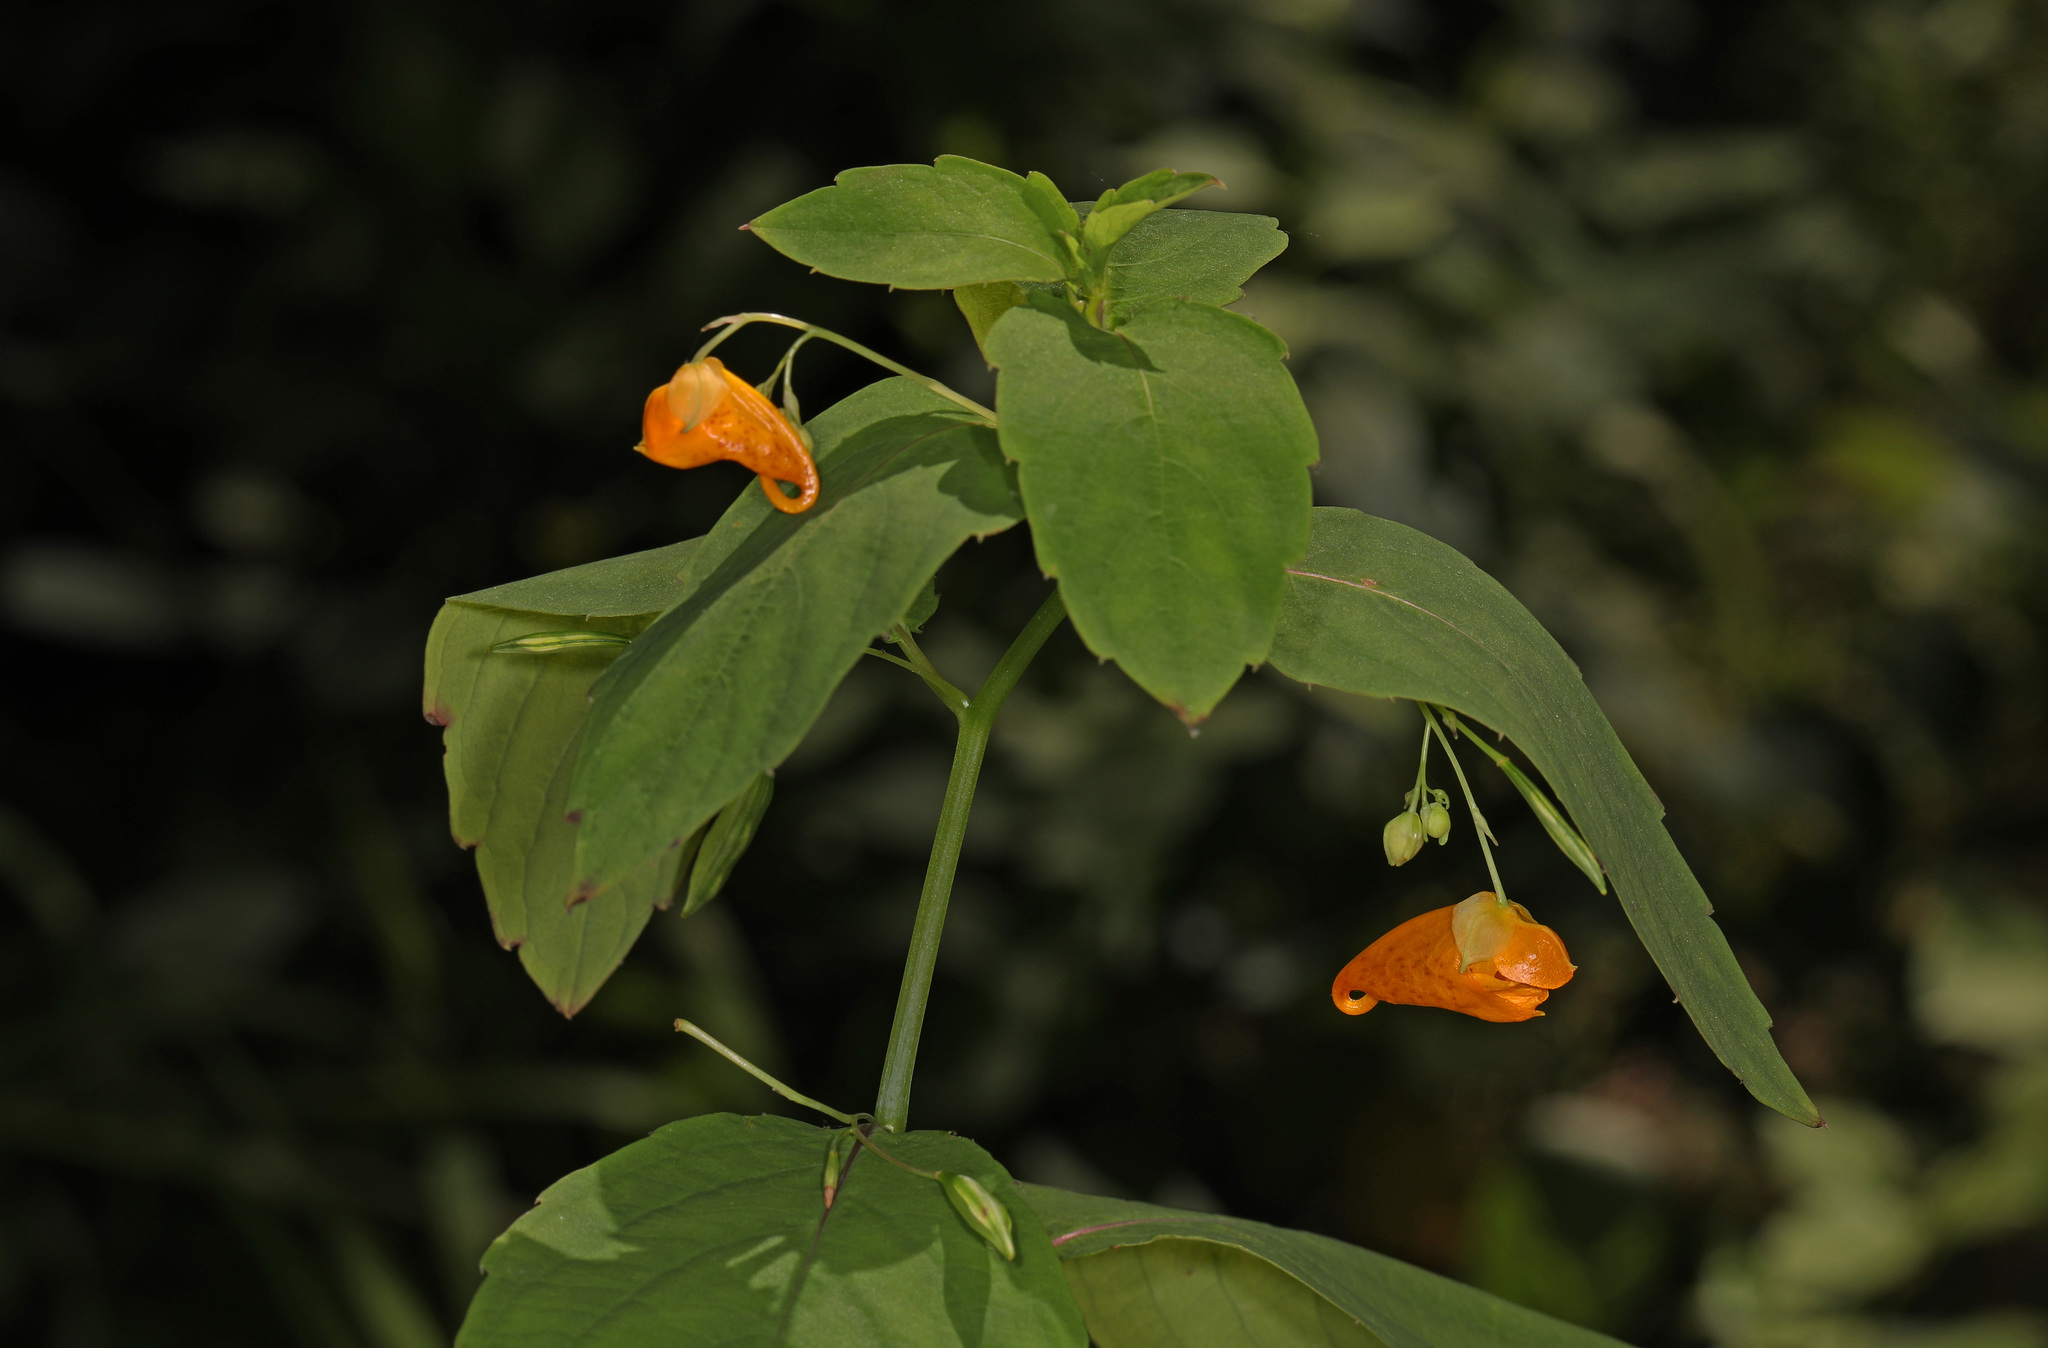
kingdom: Plantae
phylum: Tracheophyta
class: Magnoliopsida
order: Ericales
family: Balsaminaceae
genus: Impatiens
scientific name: Impatiens capensis
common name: Orange balsam
